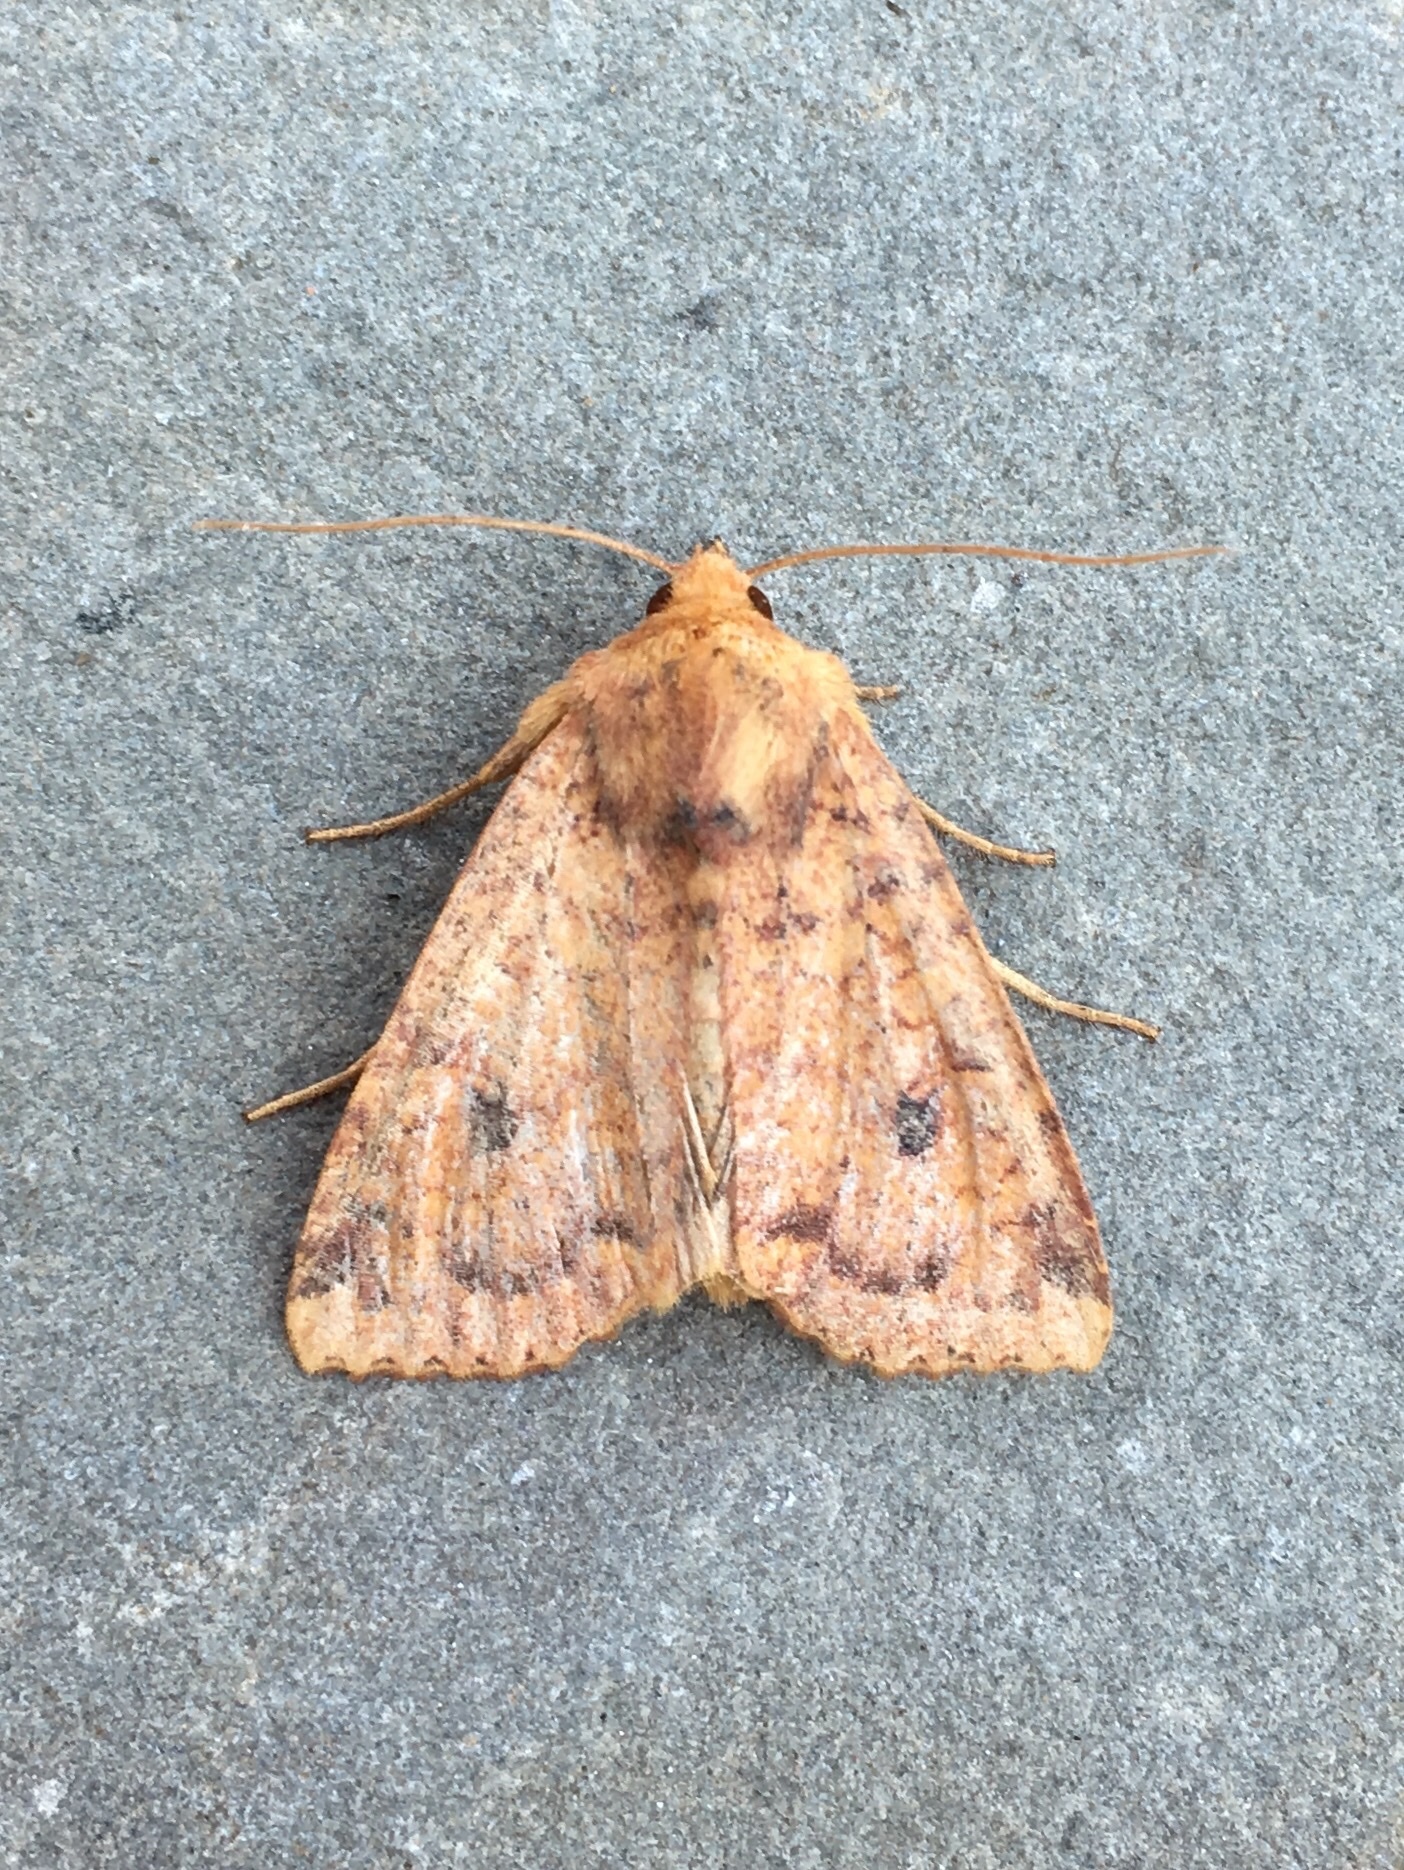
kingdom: Animalia
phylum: Arthropoda
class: Insecta
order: Lepidoptera
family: Noctuidae
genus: Apamea
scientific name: Apamea helva
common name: Yellow three-spot
